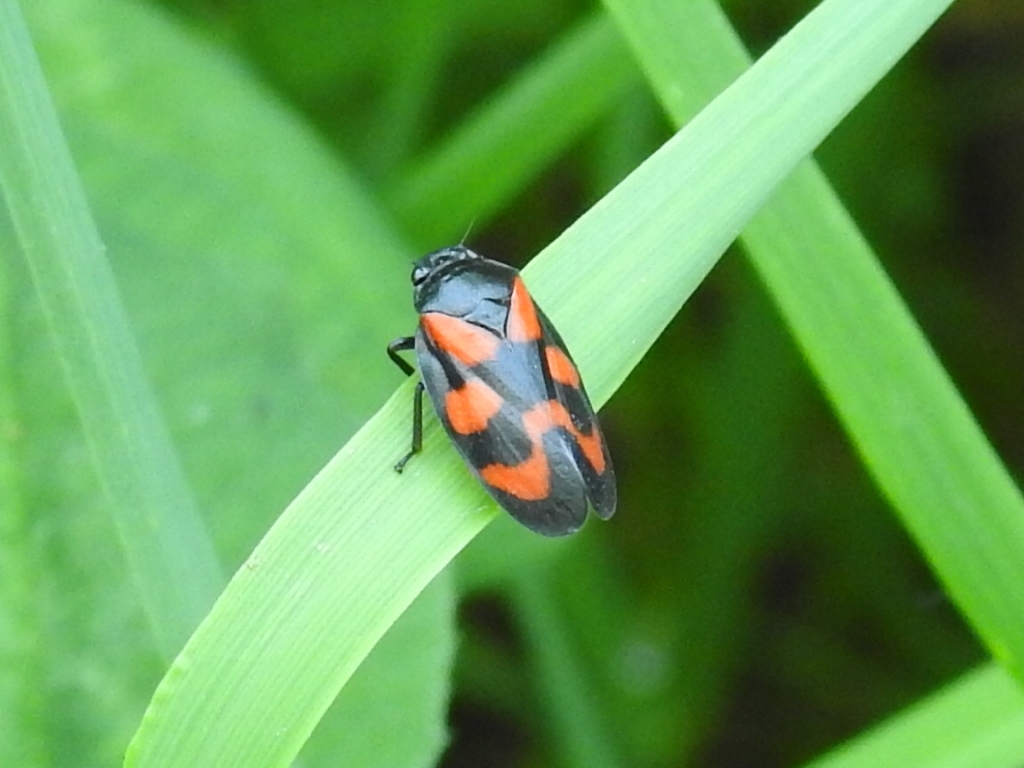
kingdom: Animalia
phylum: Arthropoda
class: Insecta
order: Hemiptera
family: Cercopidae
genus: Cercopis
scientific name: Cercopis vulnerata
